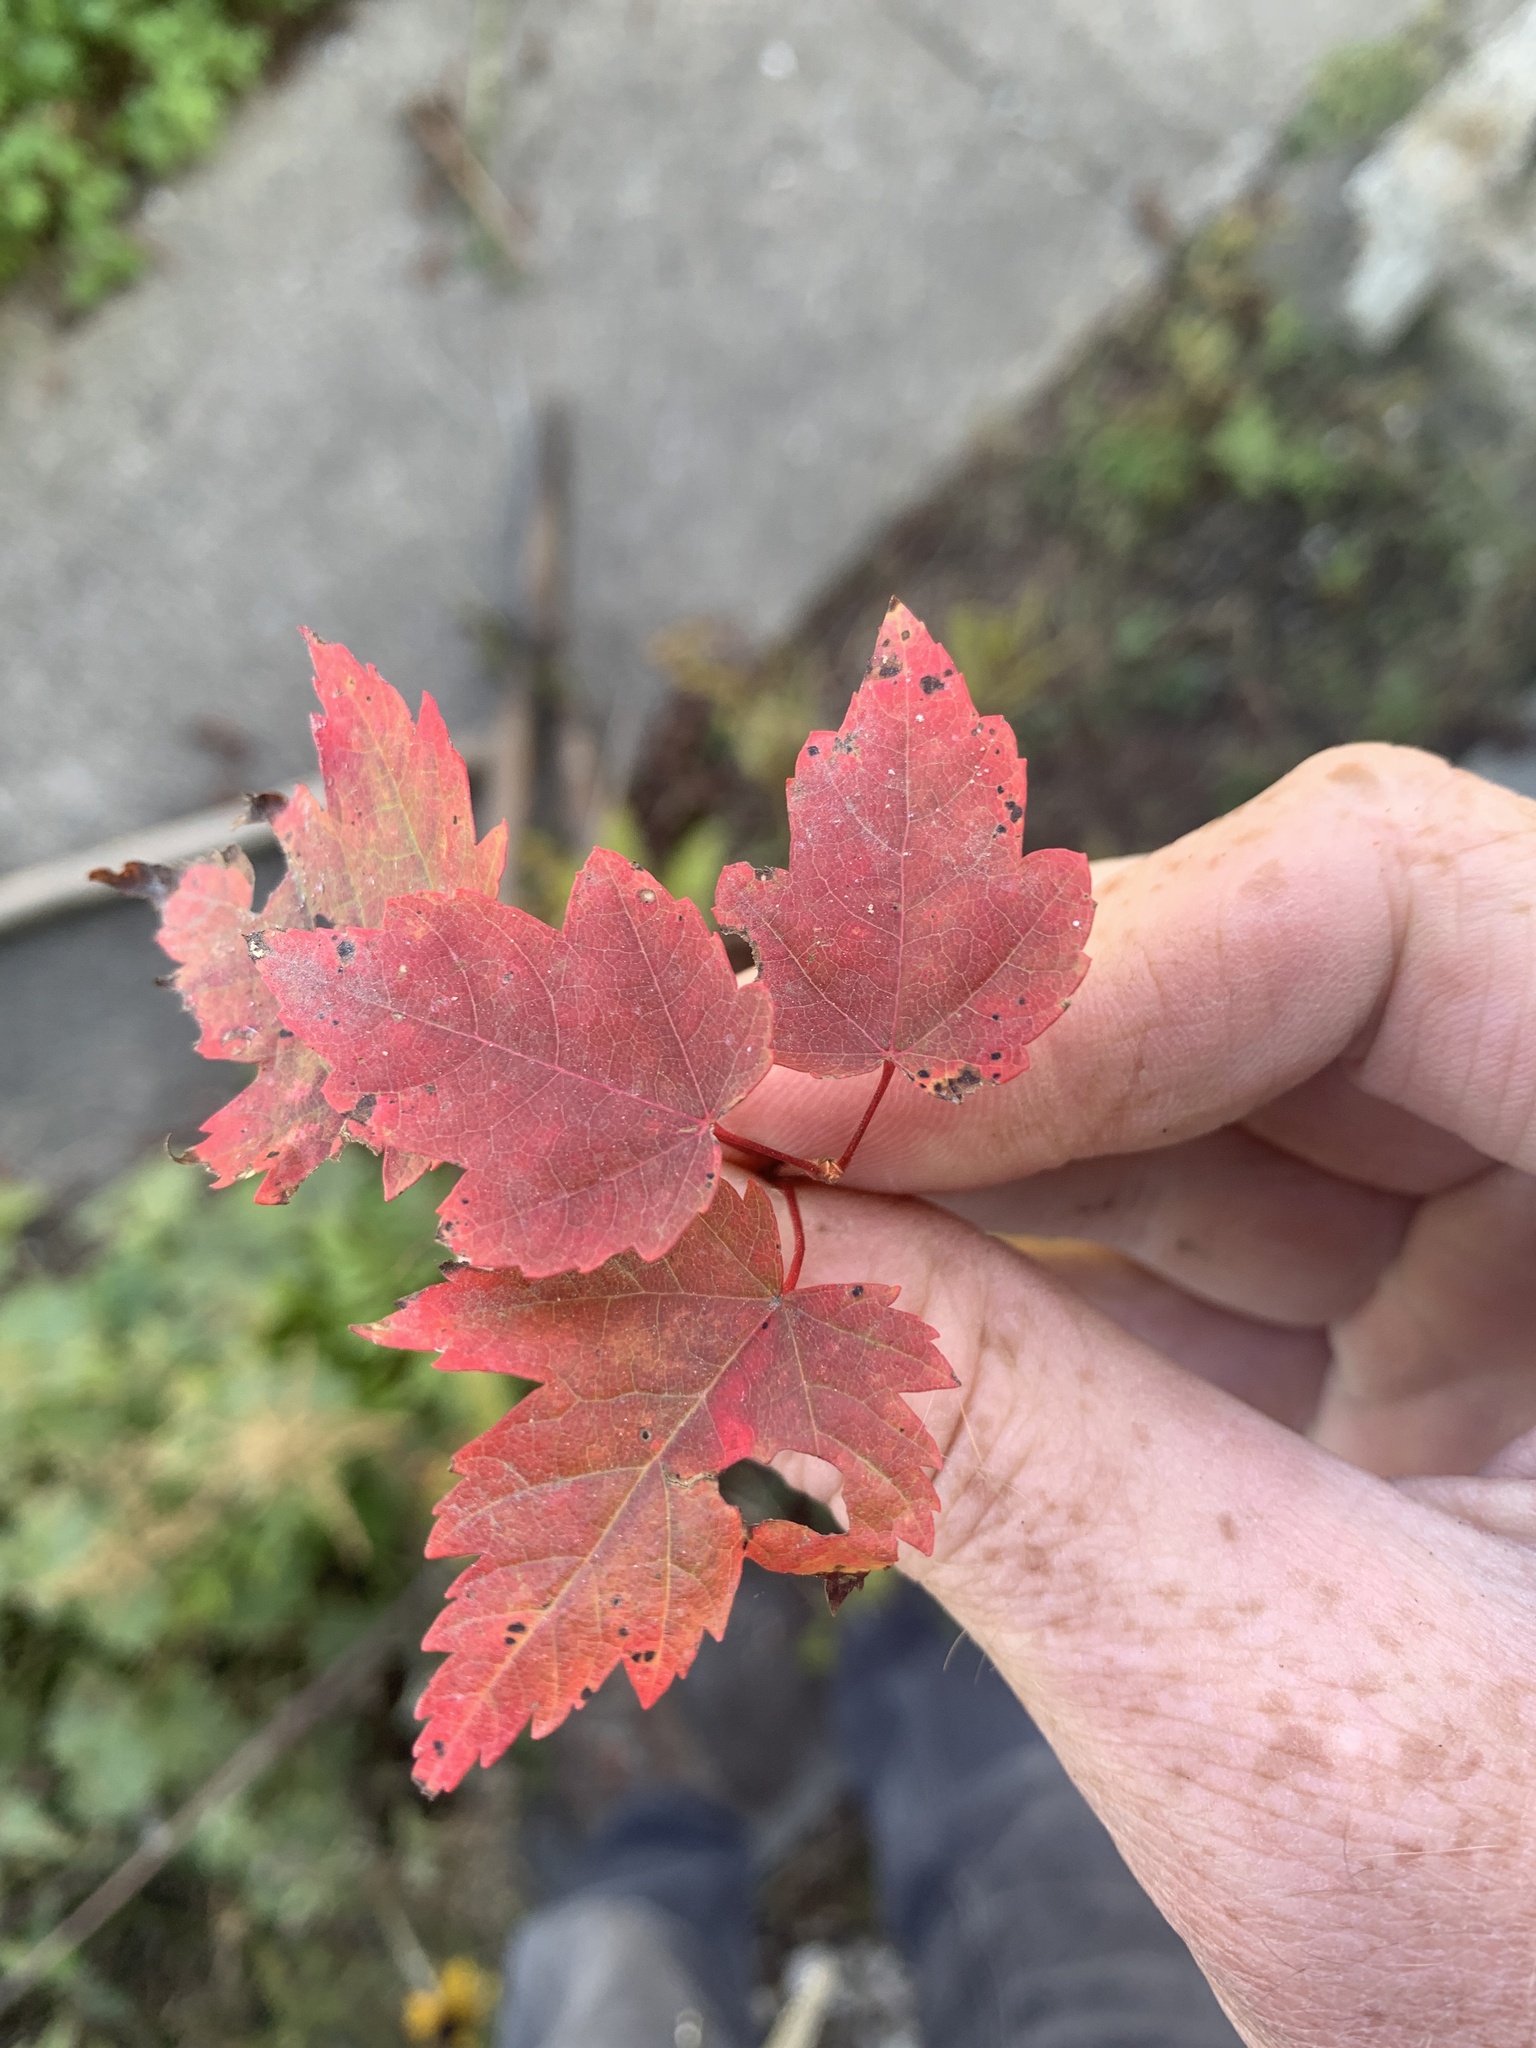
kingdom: Plantae
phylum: Tracheophyta
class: Magnoliopsida
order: Sapindales
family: Sapindaceae
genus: Acer
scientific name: Acer rubrum
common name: Red maple
